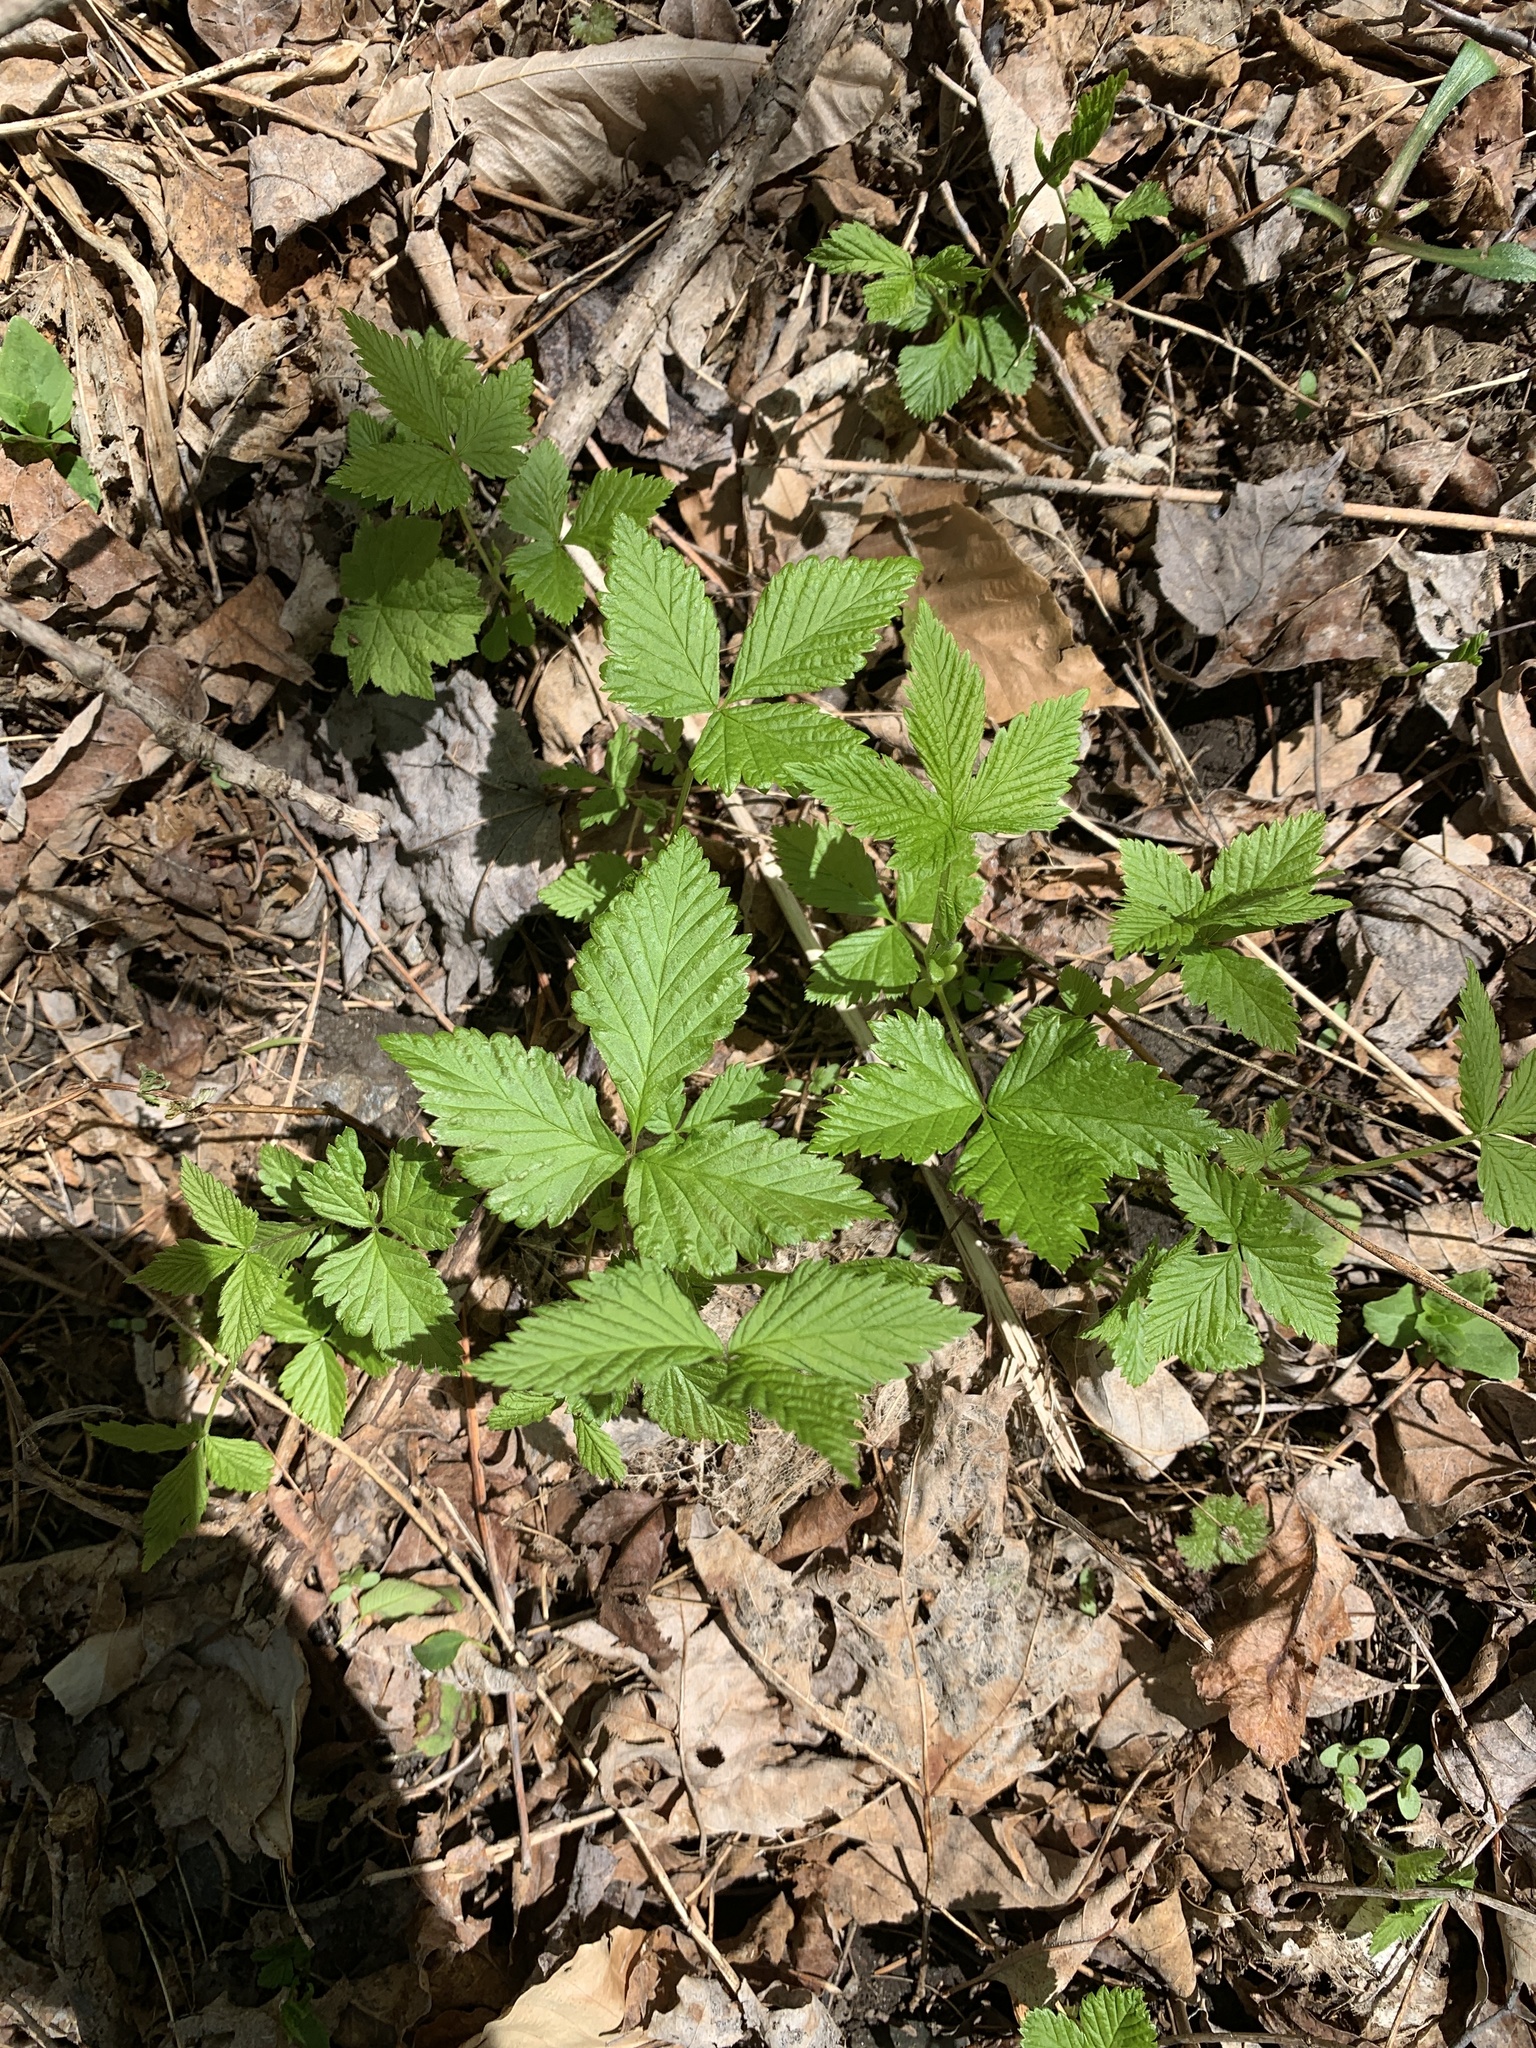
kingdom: Plantae
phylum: Tracheophyta
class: Magnoliopsida
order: Rosales
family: Rosaceae
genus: Rubus
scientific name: Rubus pubescens
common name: Dwarf raspberry
